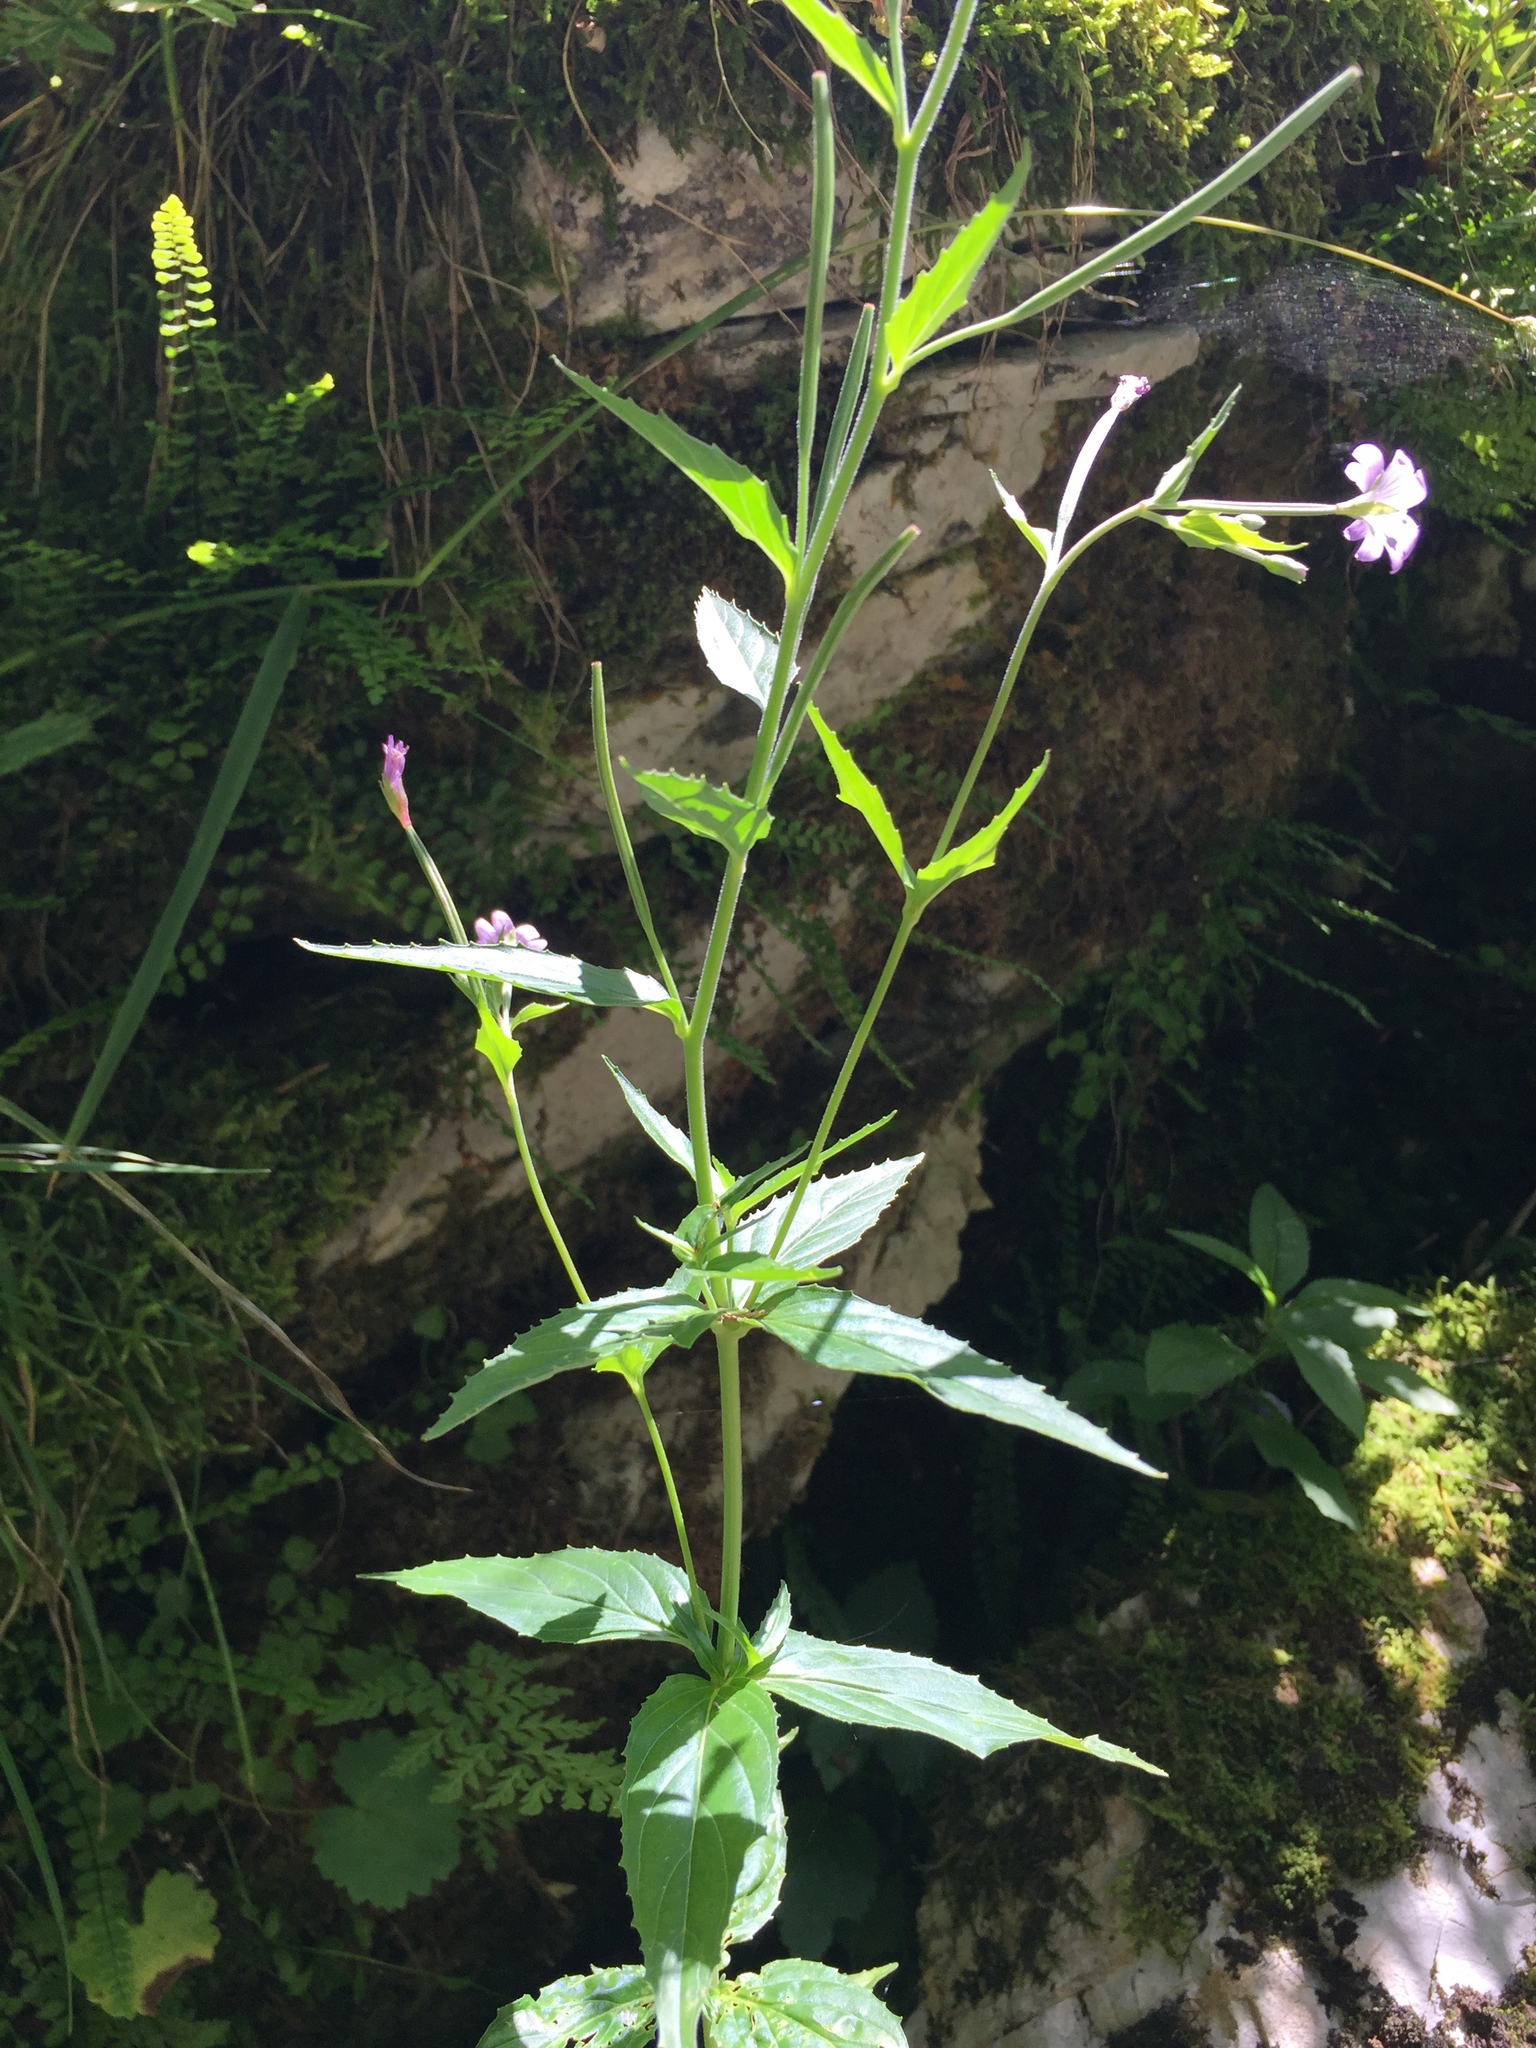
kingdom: Plantae
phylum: Tracheophyta
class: Magnoliopsida
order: Myrtales
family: Onagraceae
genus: Epilobium
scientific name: Epilobium alpestre
